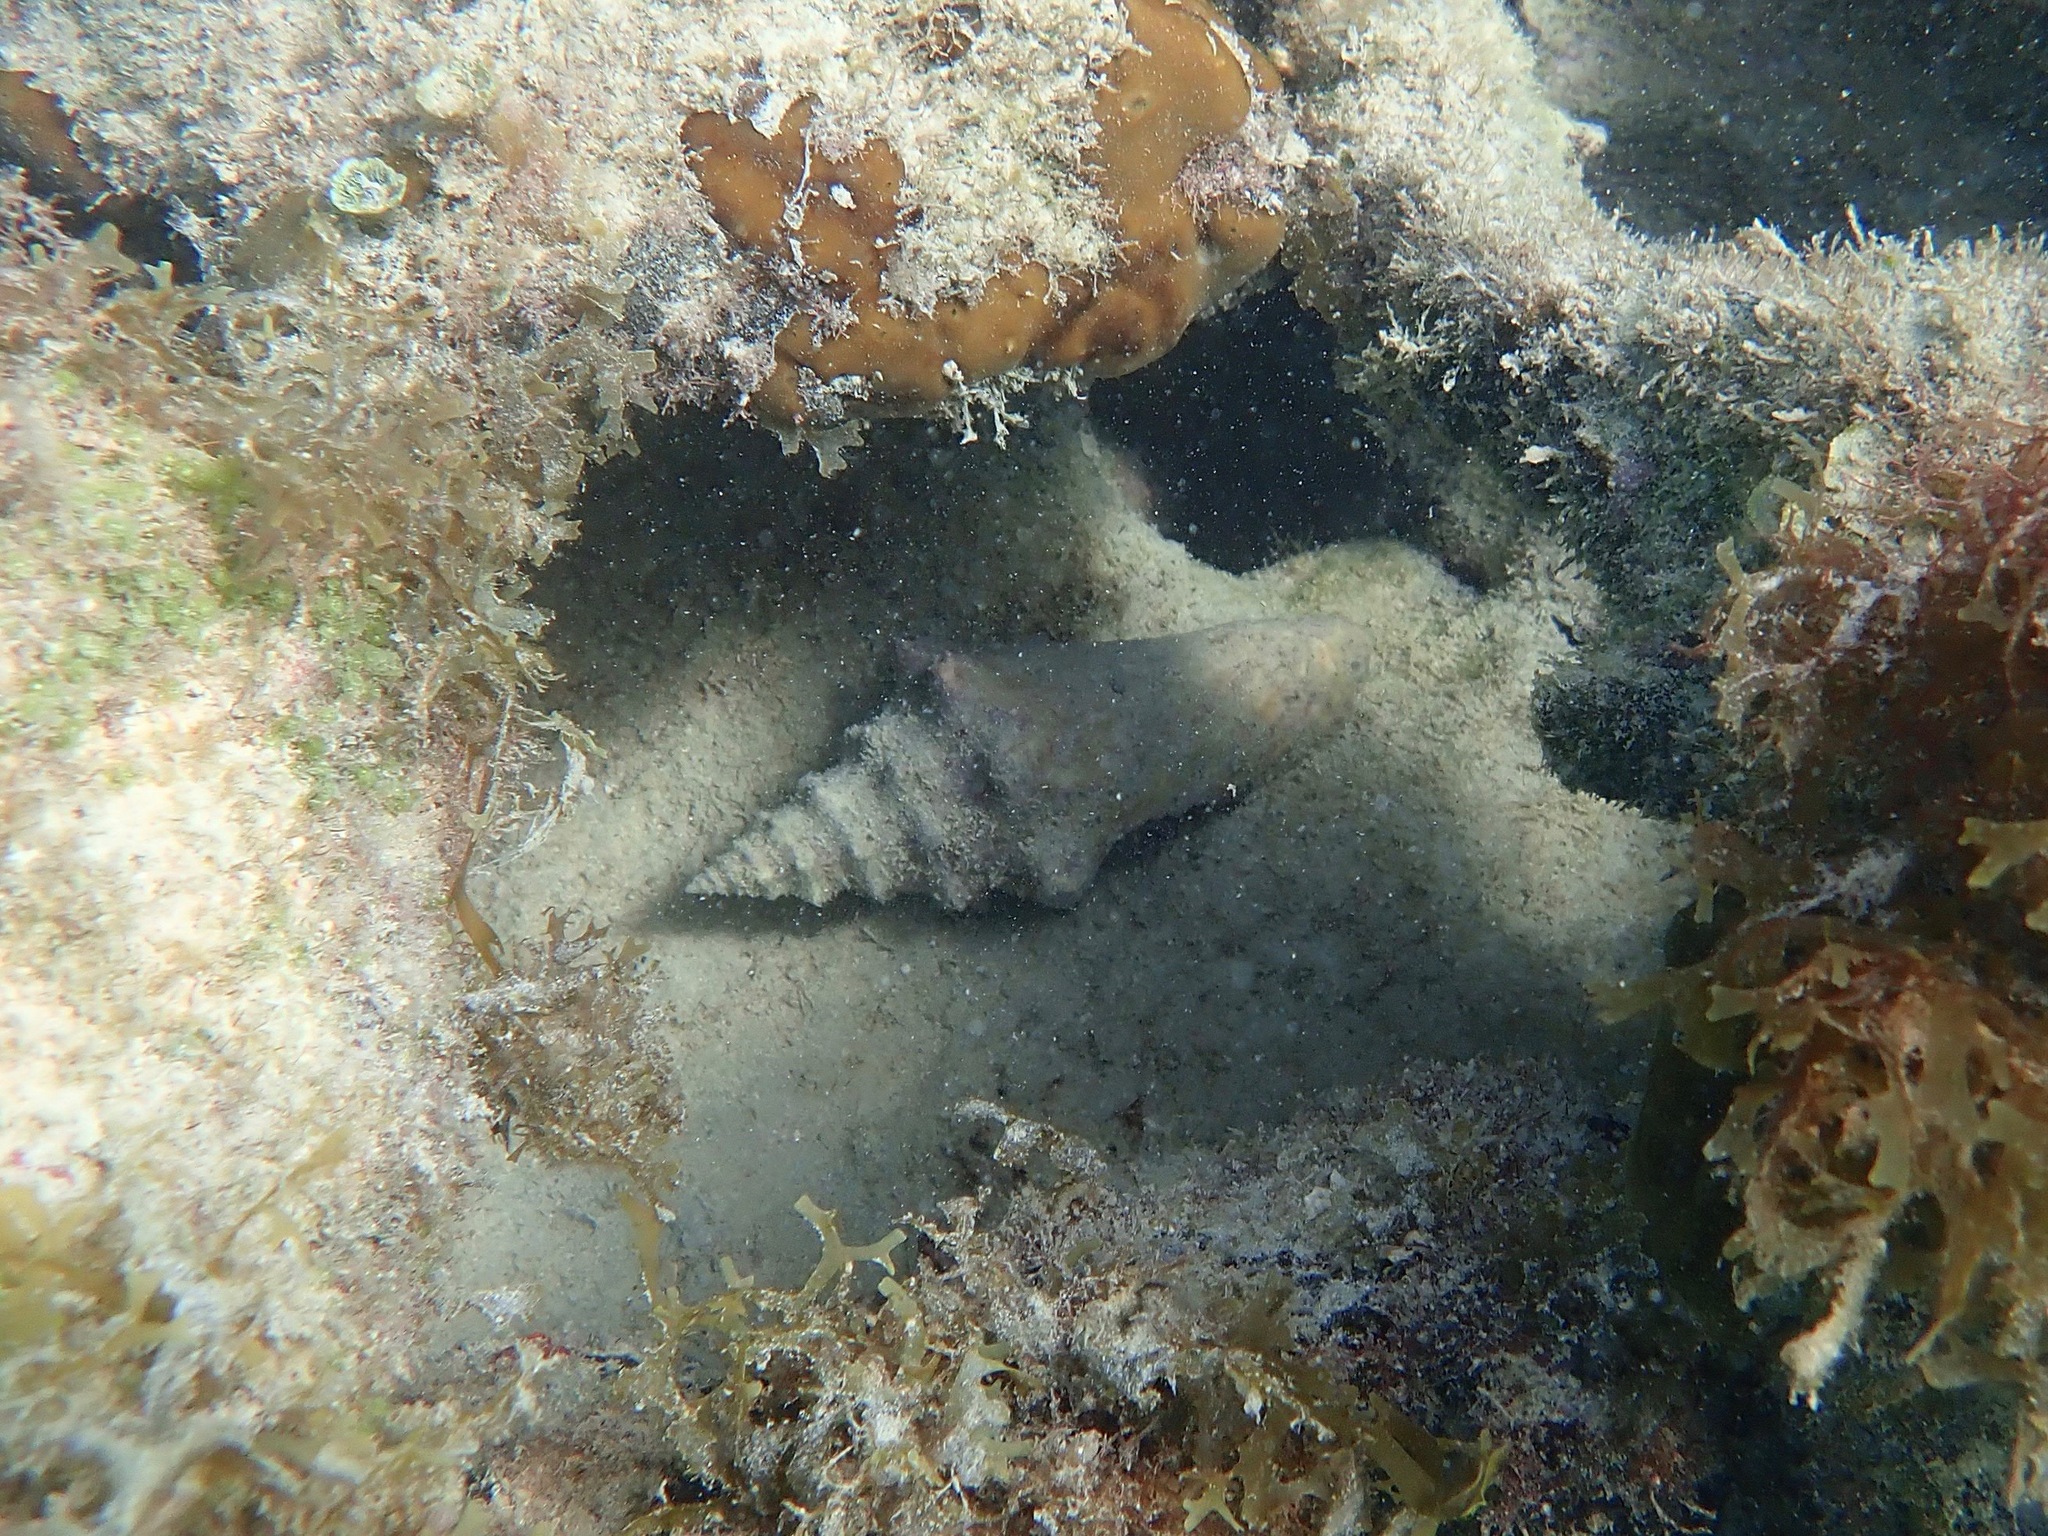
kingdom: Animalia
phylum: Mollusca
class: Gastropoda
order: Littorinimorpha
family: Strombidae
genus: Aliger
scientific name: Aliger gigas
